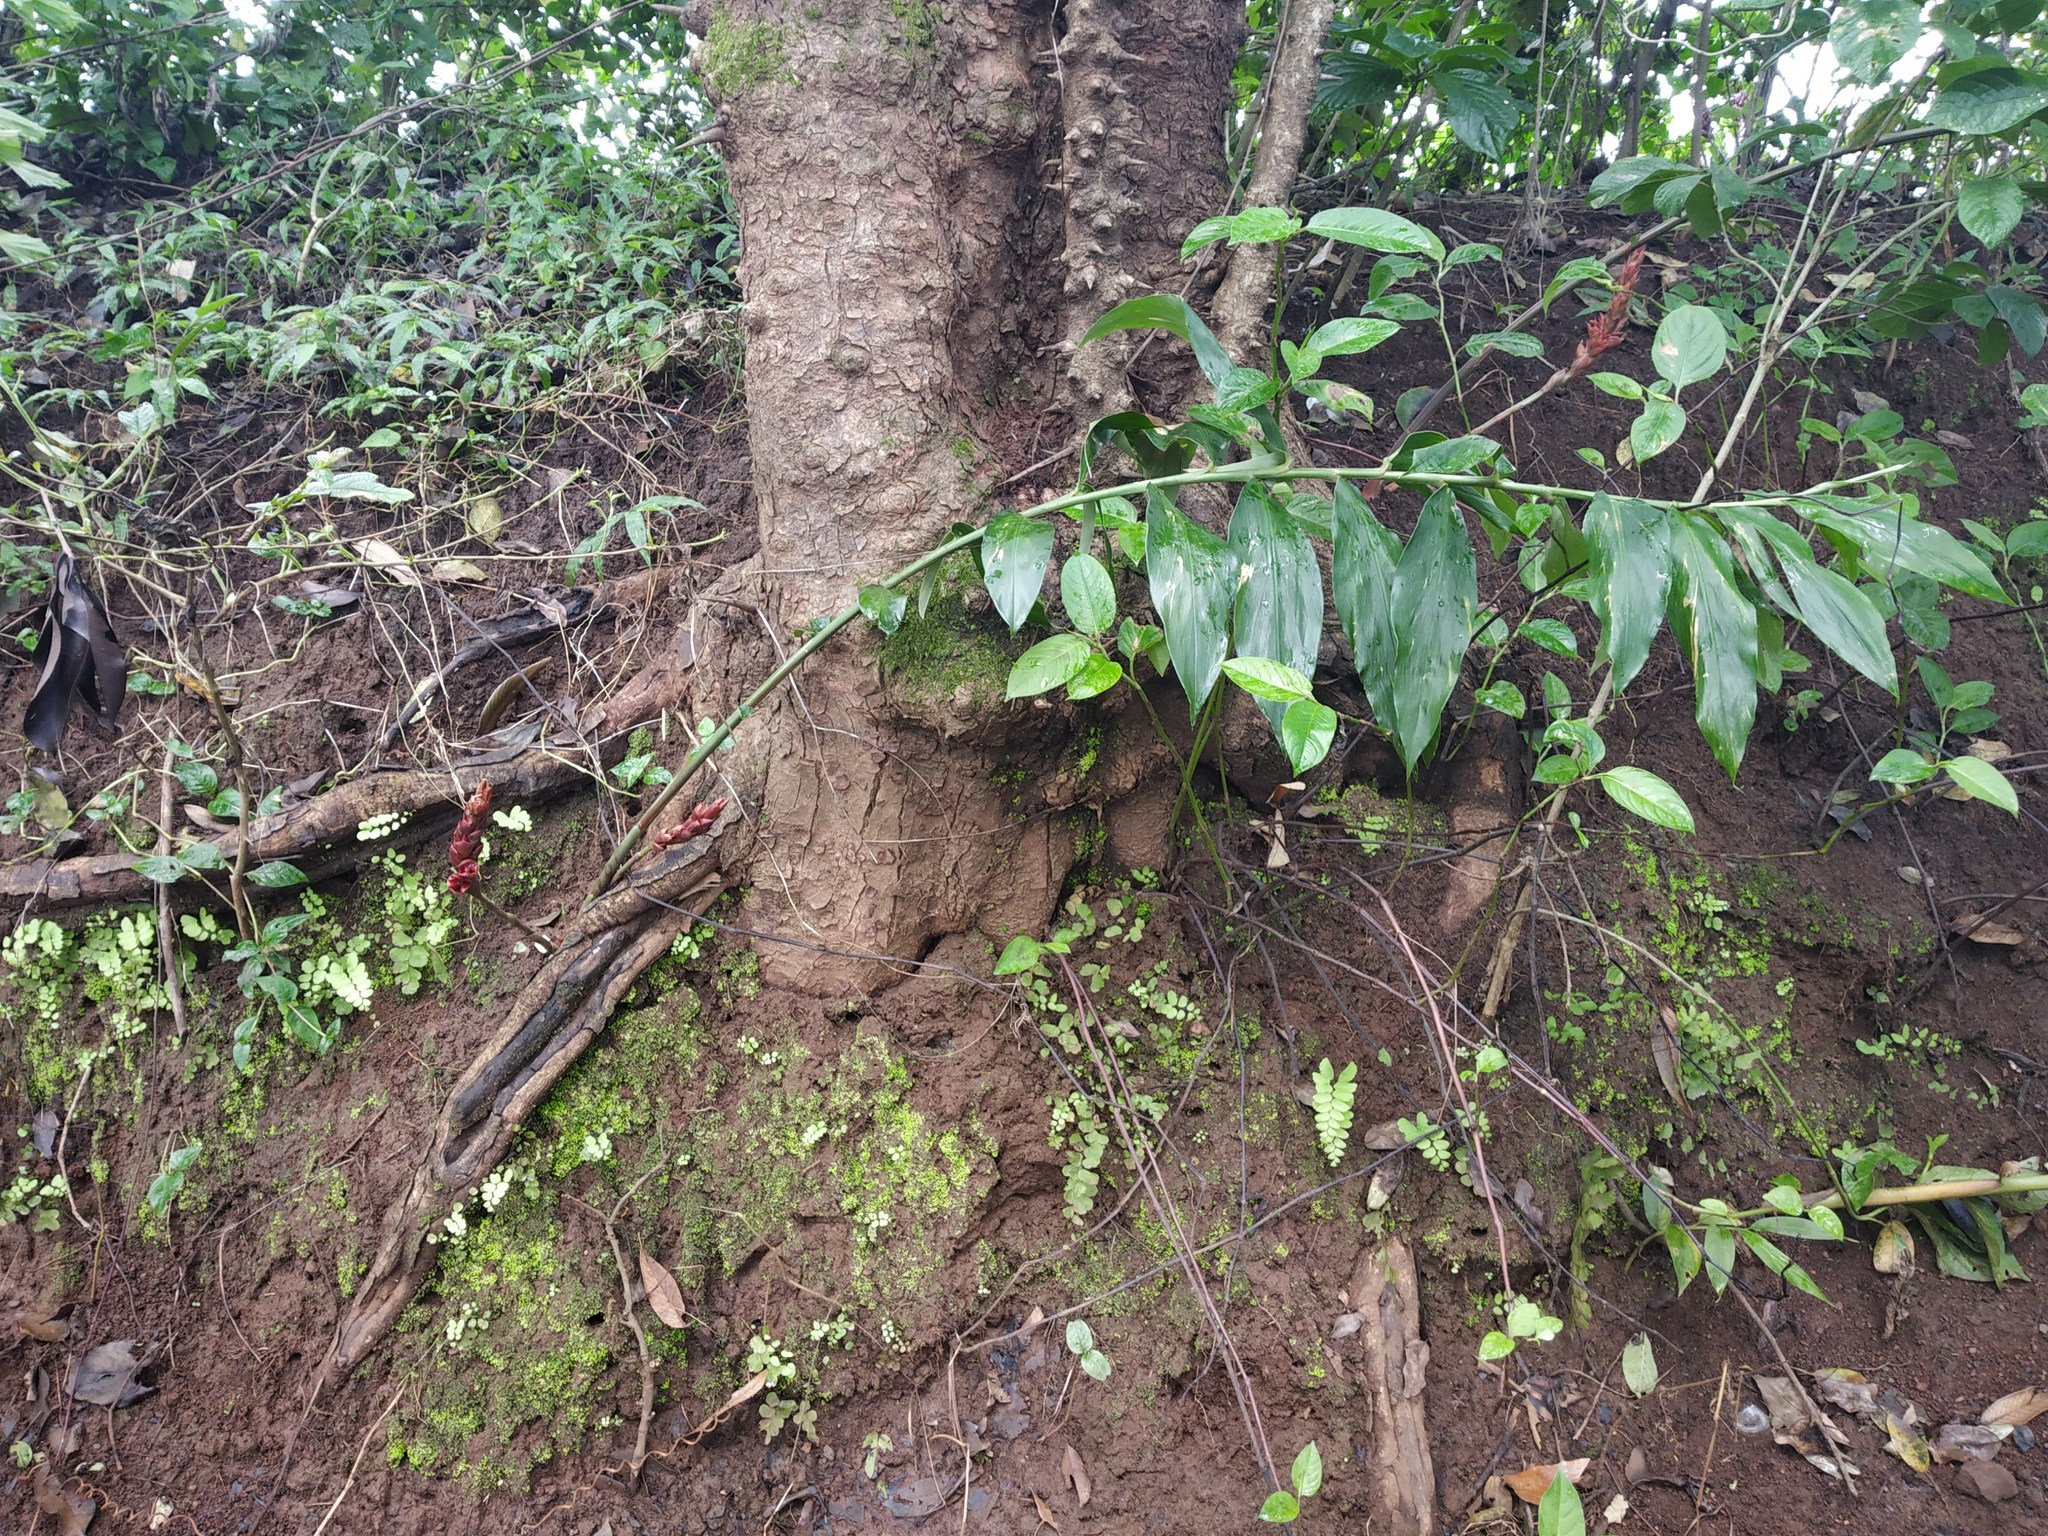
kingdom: Plantae
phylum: Tracheophyta
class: Liliopsida
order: Zingiberales
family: Zingiberaceae
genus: Zingiber
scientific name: Zingiber anamalayanum
